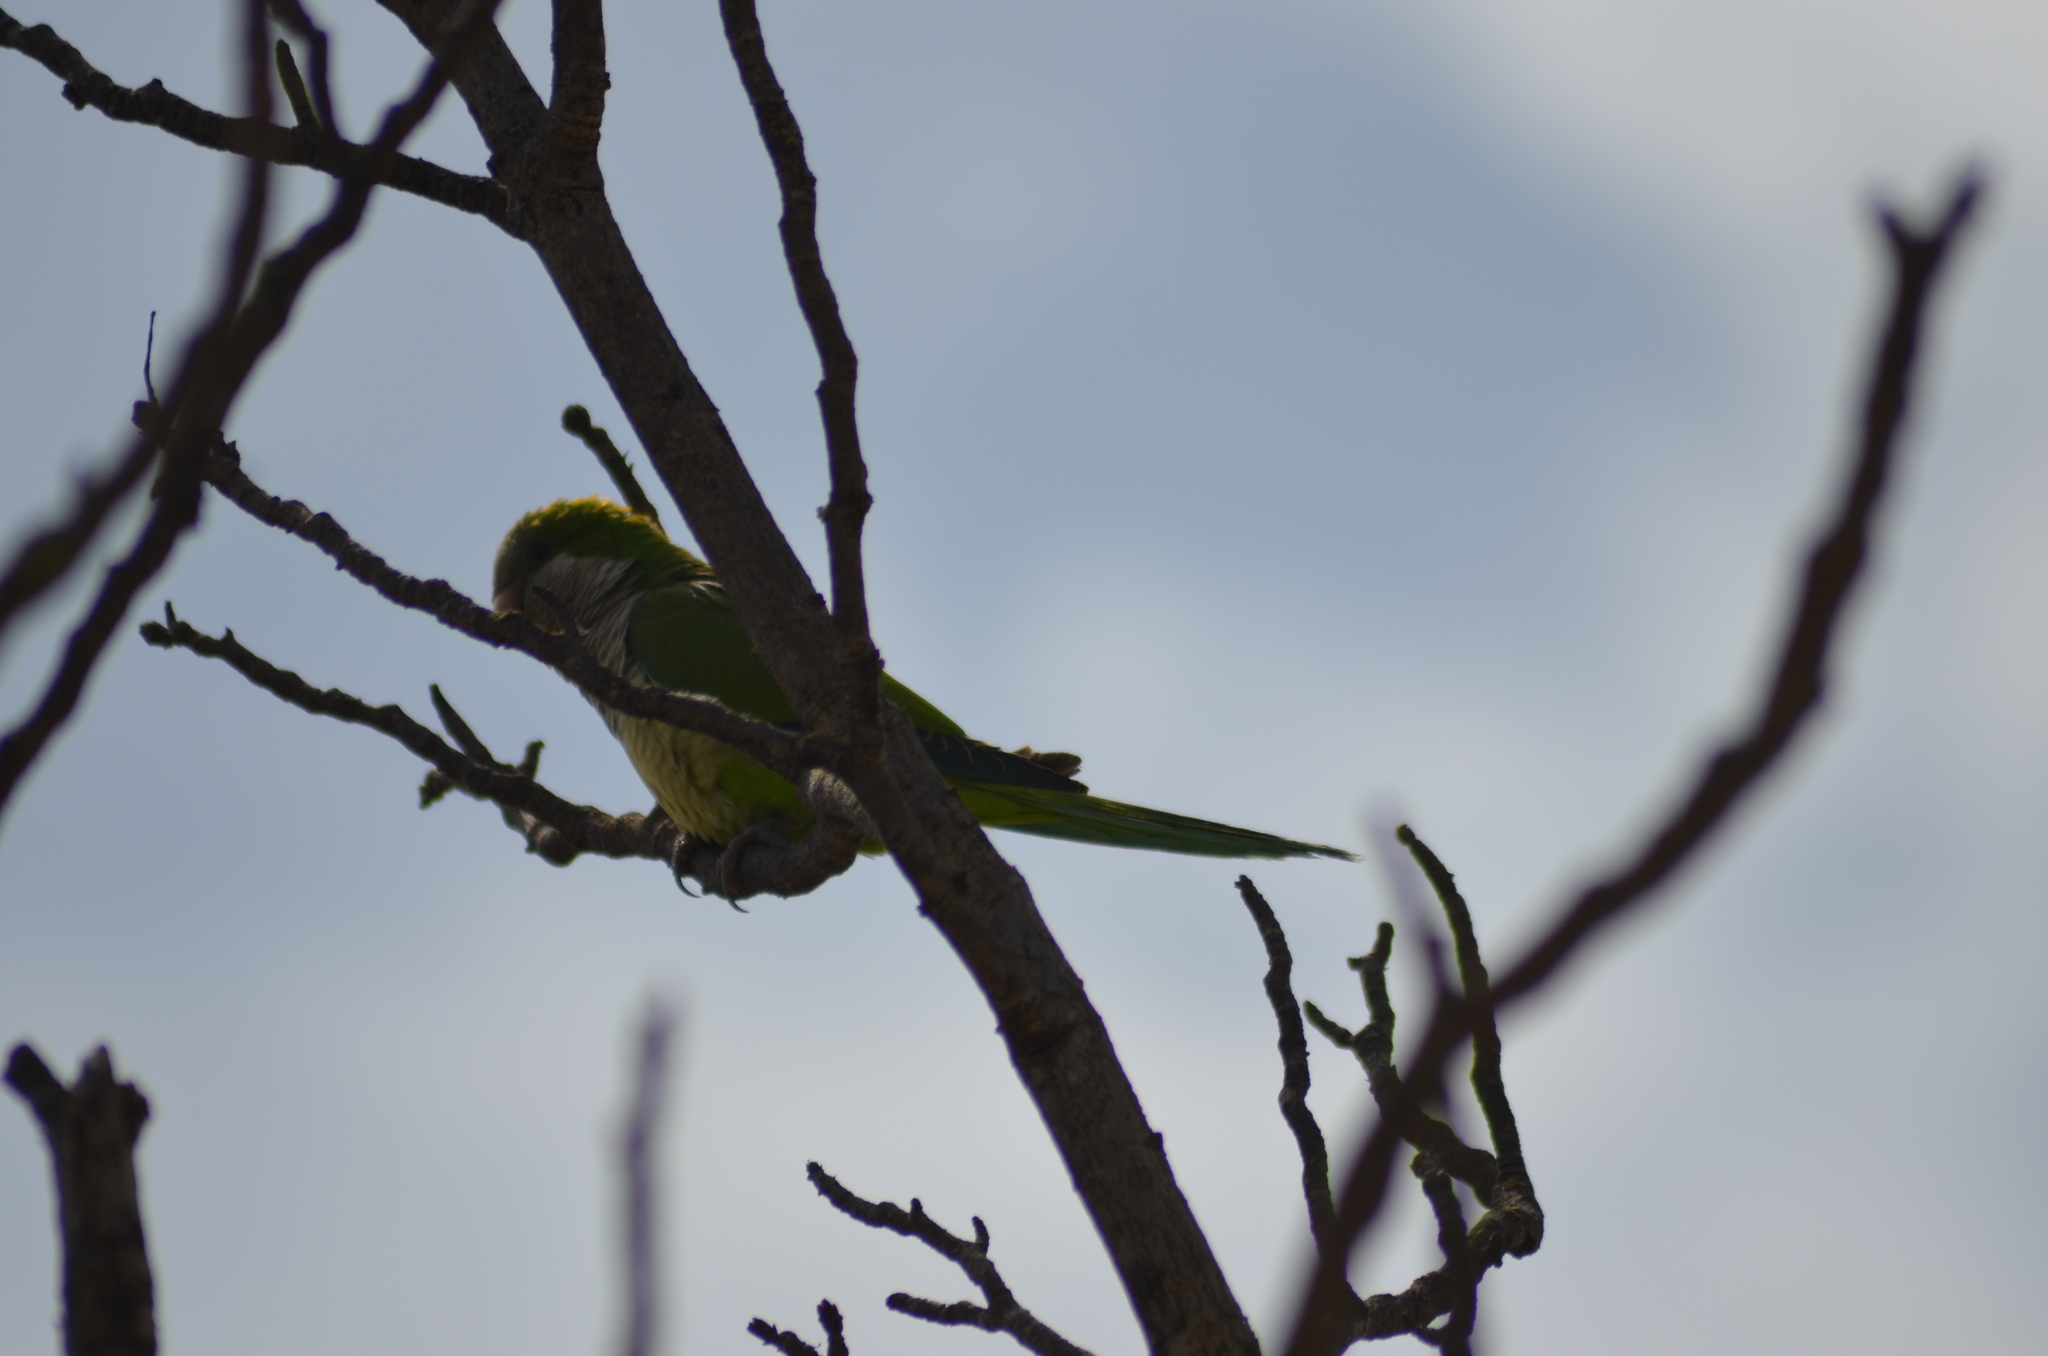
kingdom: Animalia
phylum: Chordata
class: Aves
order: Psittaciformes
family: Psittacidae
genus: Myiopsitta
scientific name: Myiopsitta monachus
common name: Monk parakeet
